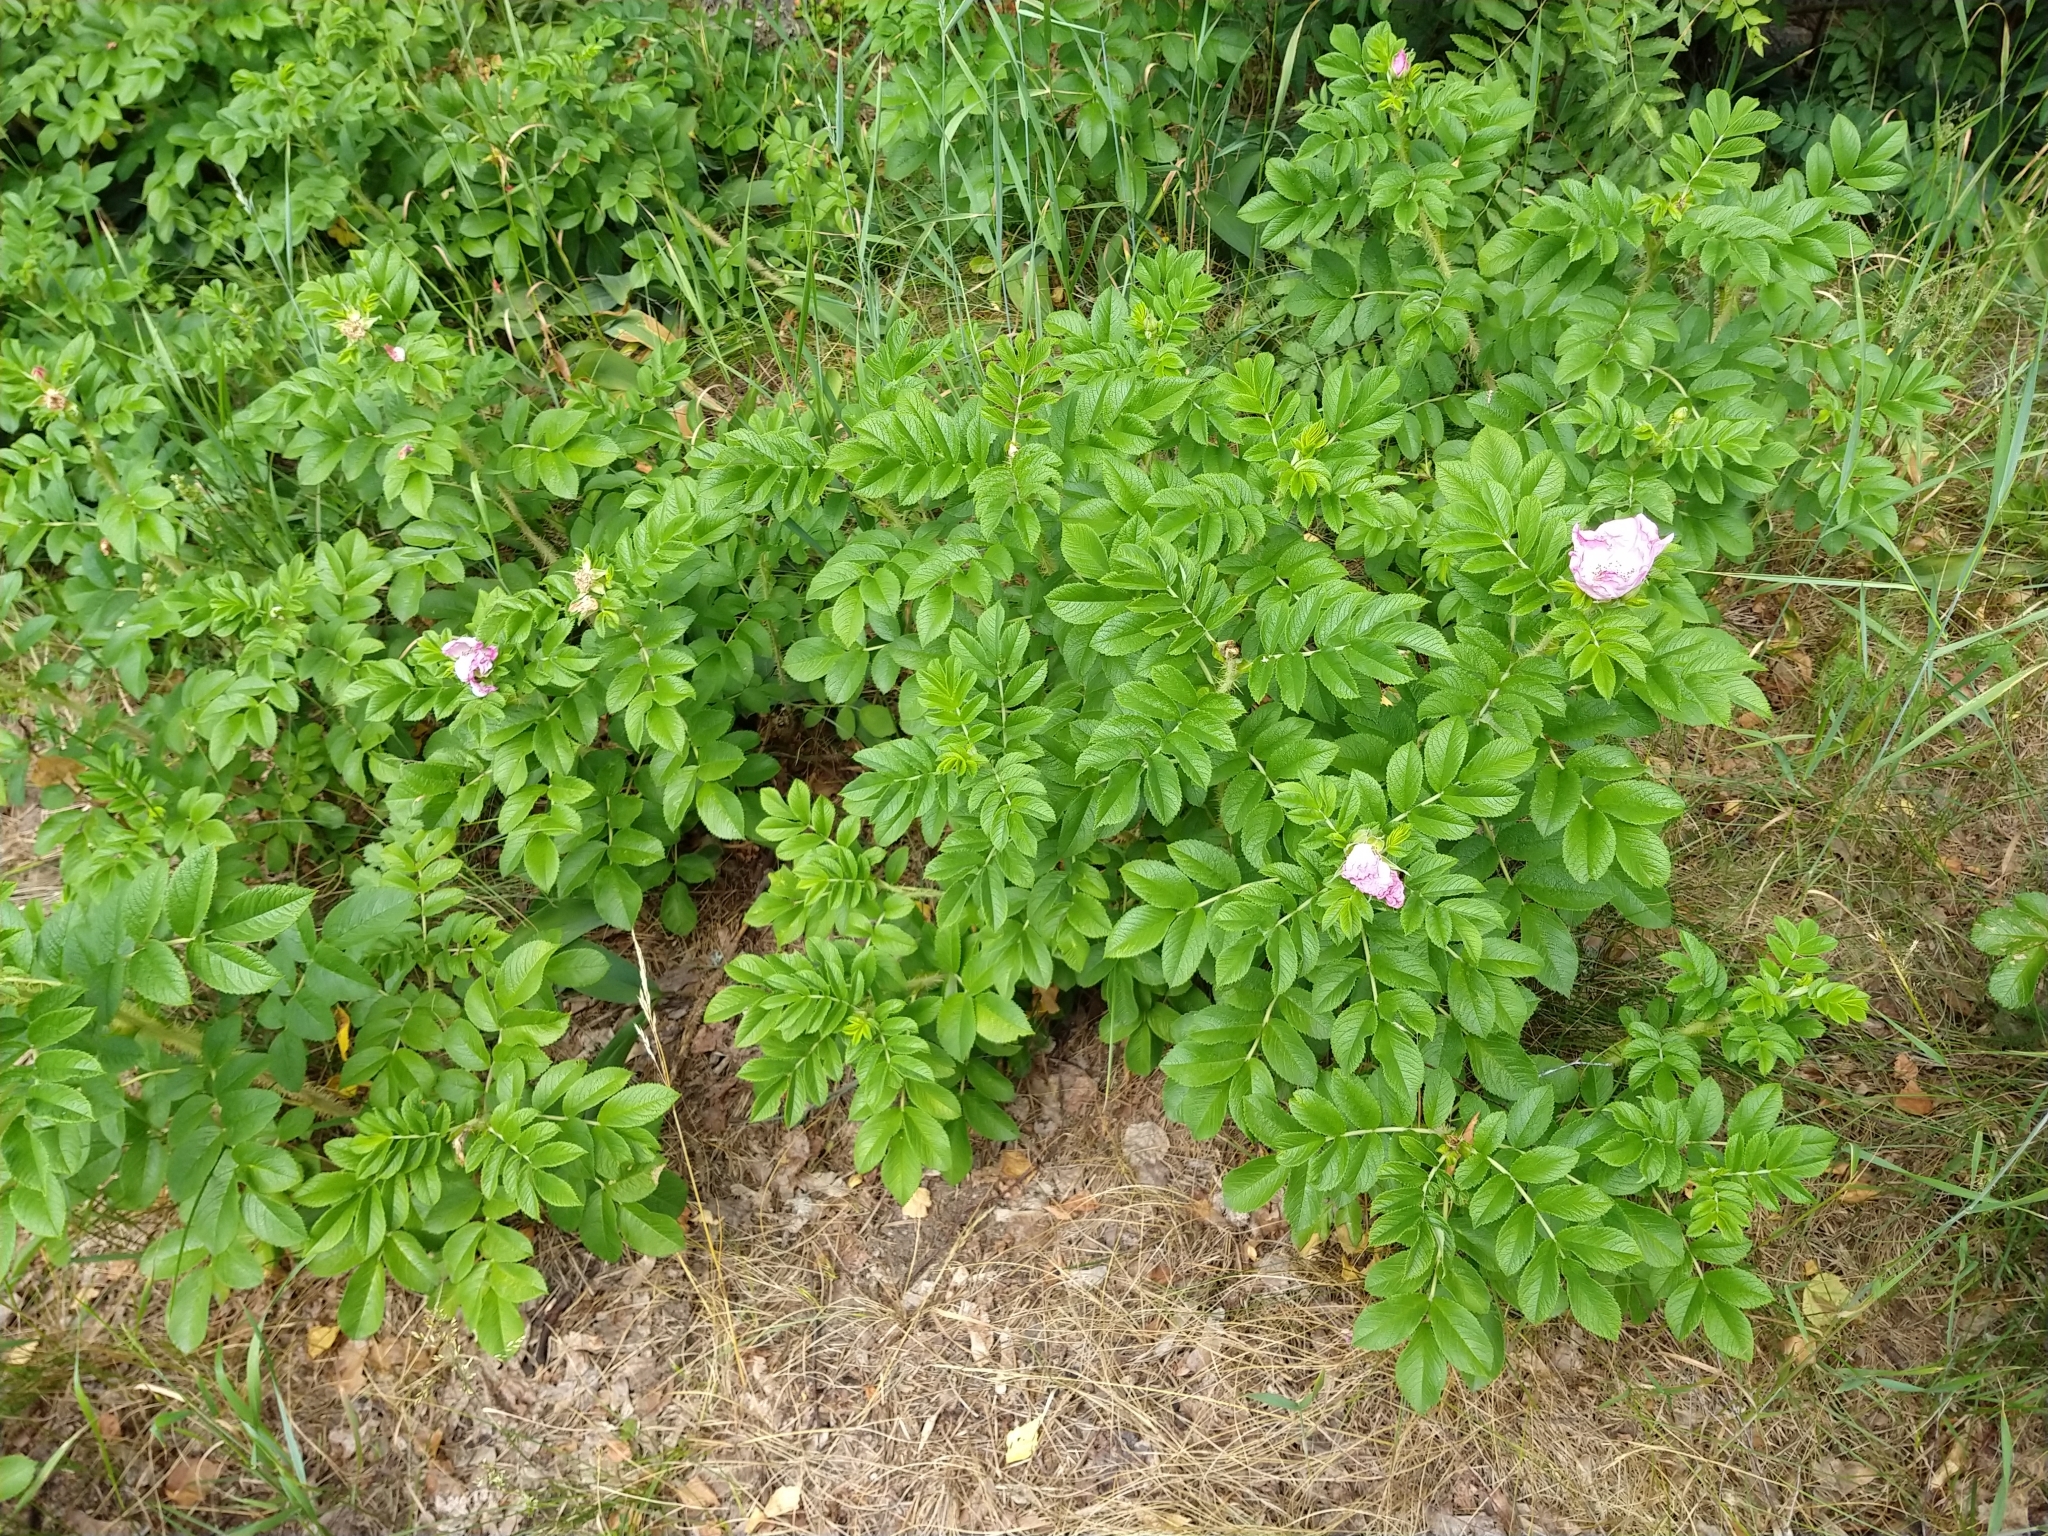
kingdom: Plantae
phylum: Tracheophyta
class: Magnoliopsida
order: Rosales
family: Rosaceae
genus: Rosa
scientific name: Rosa rugosa
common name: Japanese rose
